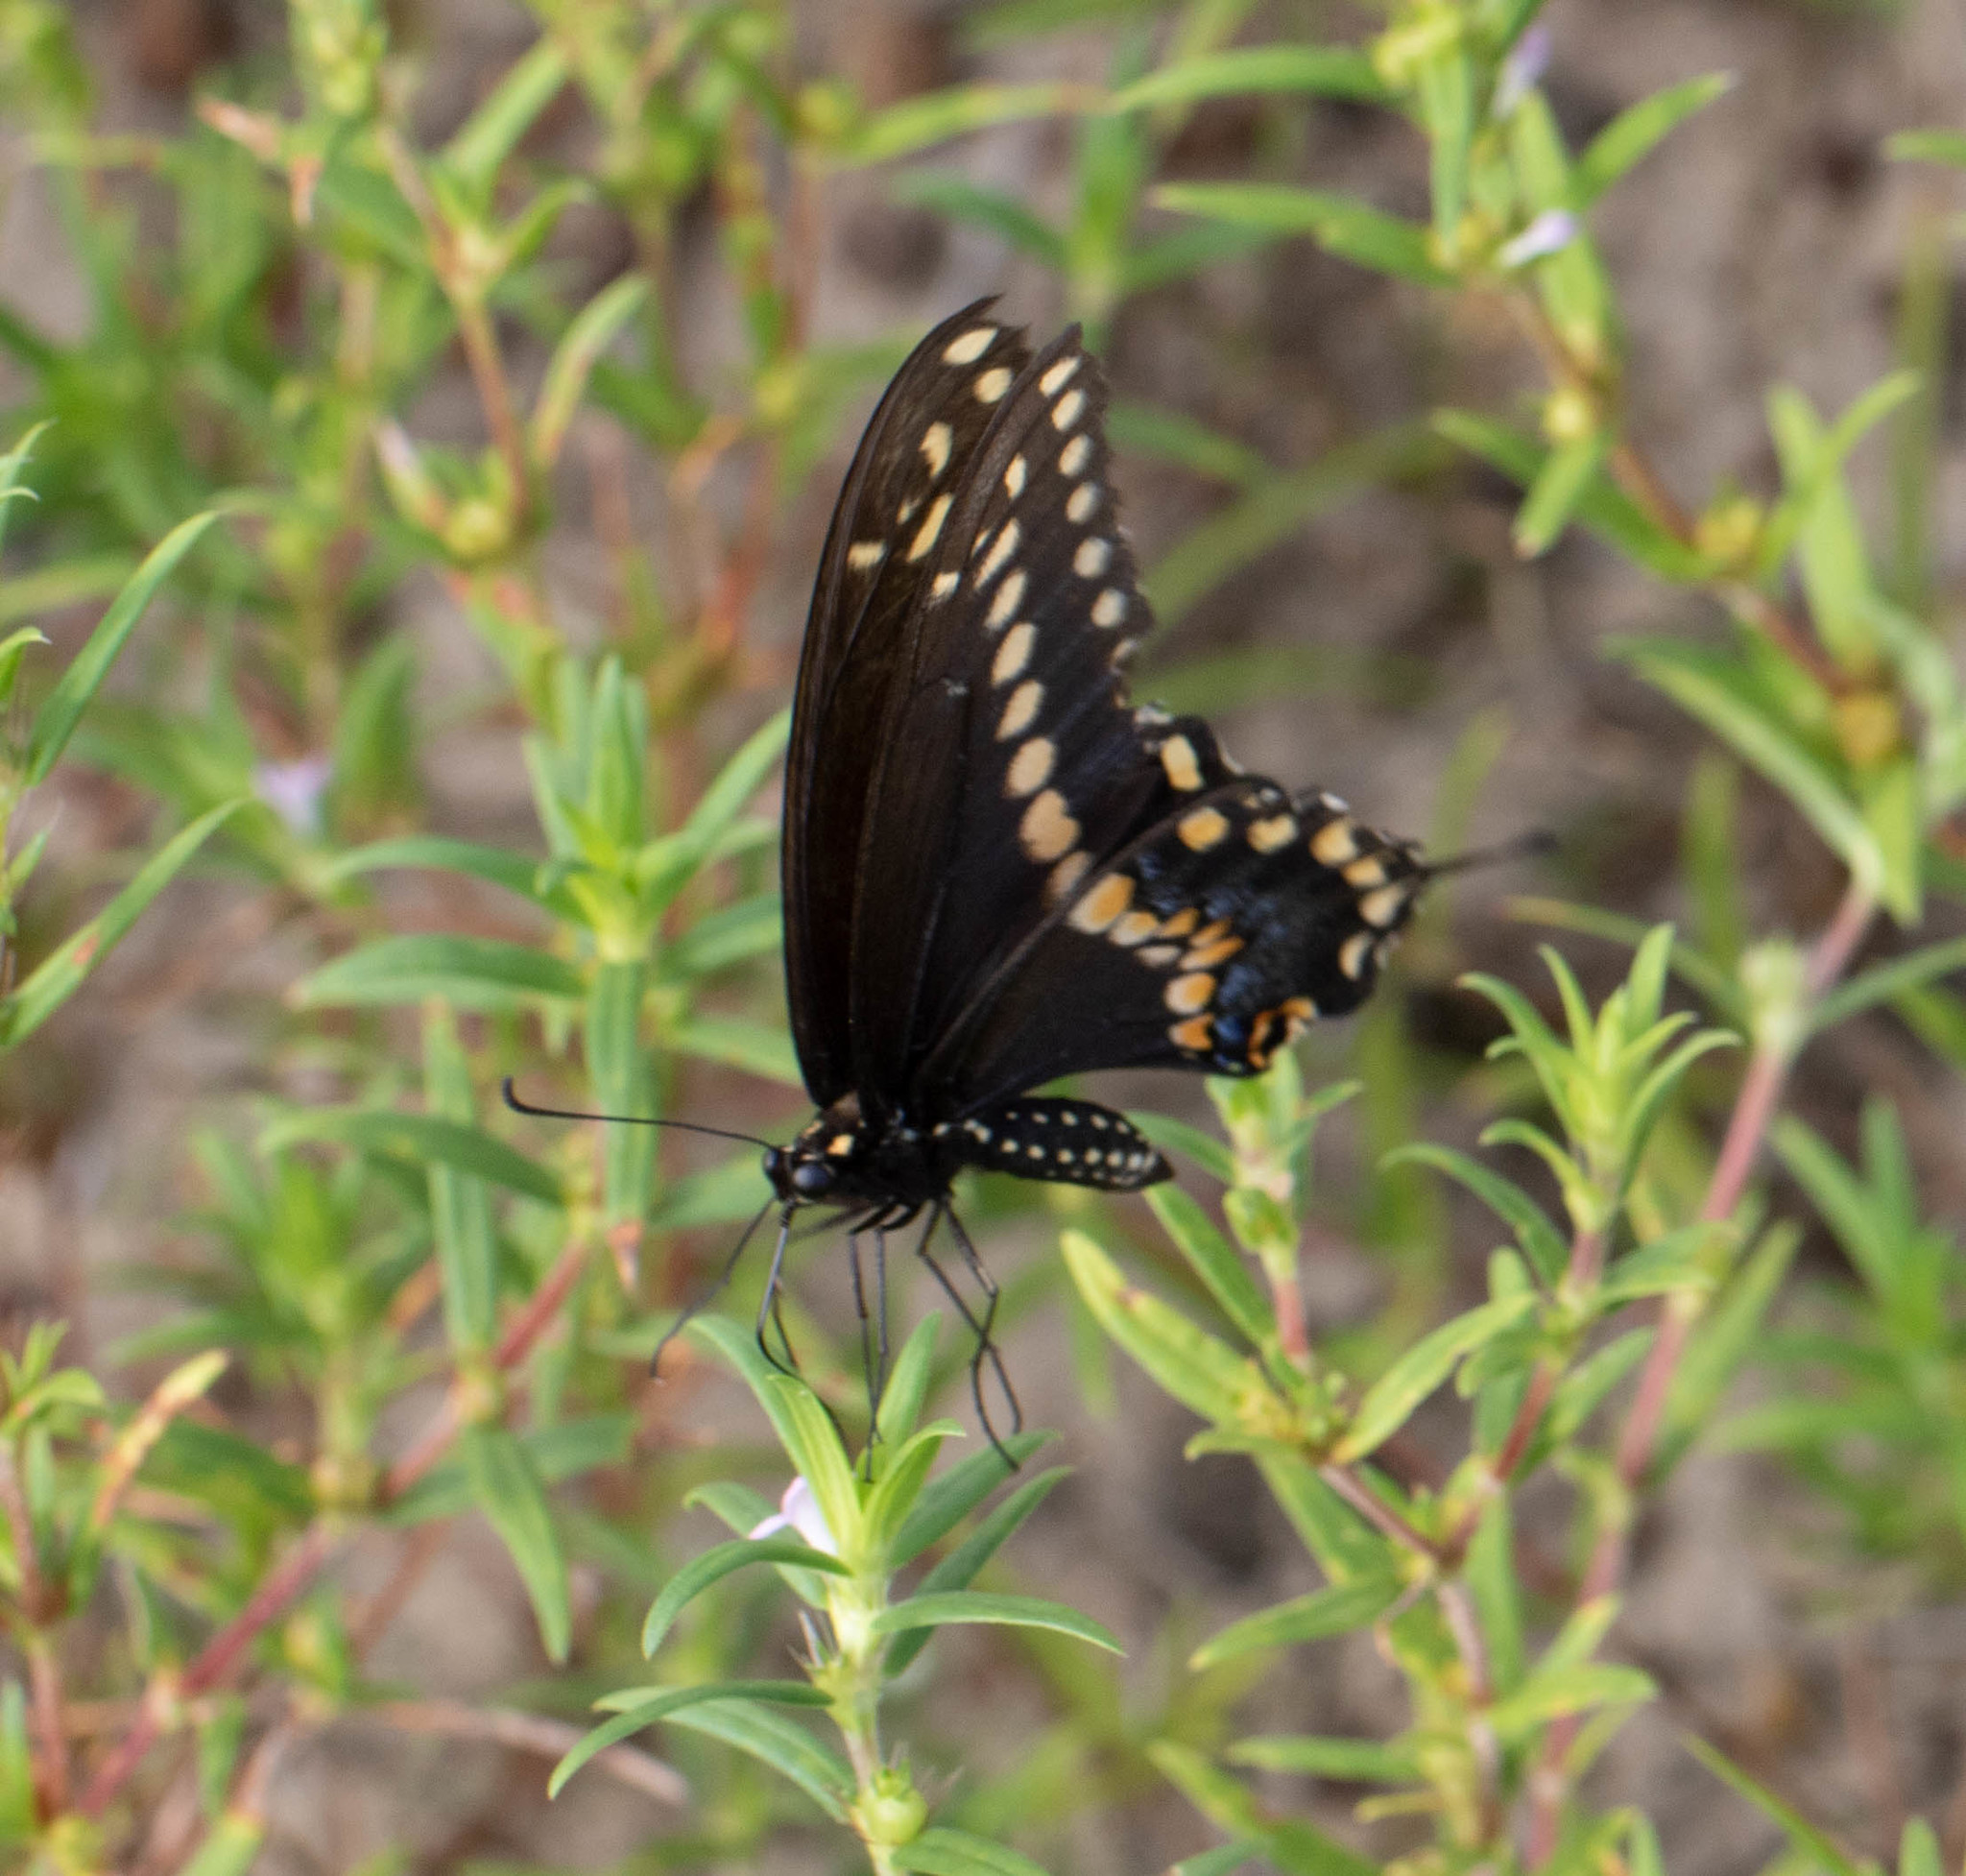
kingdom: Animalia
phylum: Arthropoda
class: Insecta
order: Lepidoptera
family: Papilionidae
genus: Papilio
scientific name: Papilio polyxenes
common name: Black swallowtail
